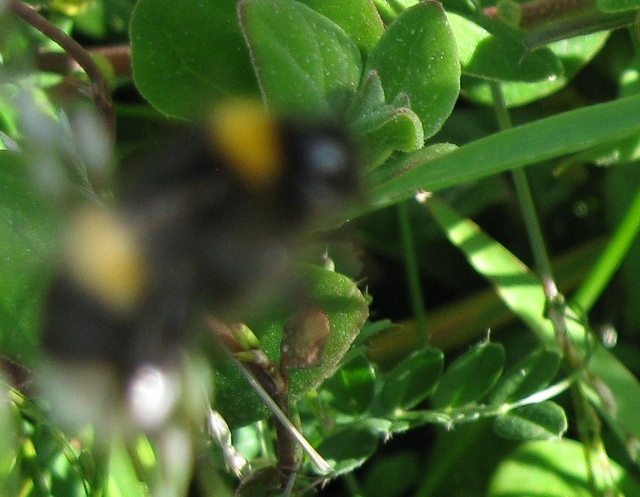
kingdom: Animalia
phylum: Arthropoda
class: Insecta
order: Hymenoptera
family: Apidae
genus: Bombus
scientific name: Bombus terrestris
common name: Buff-tailed bumblebee
